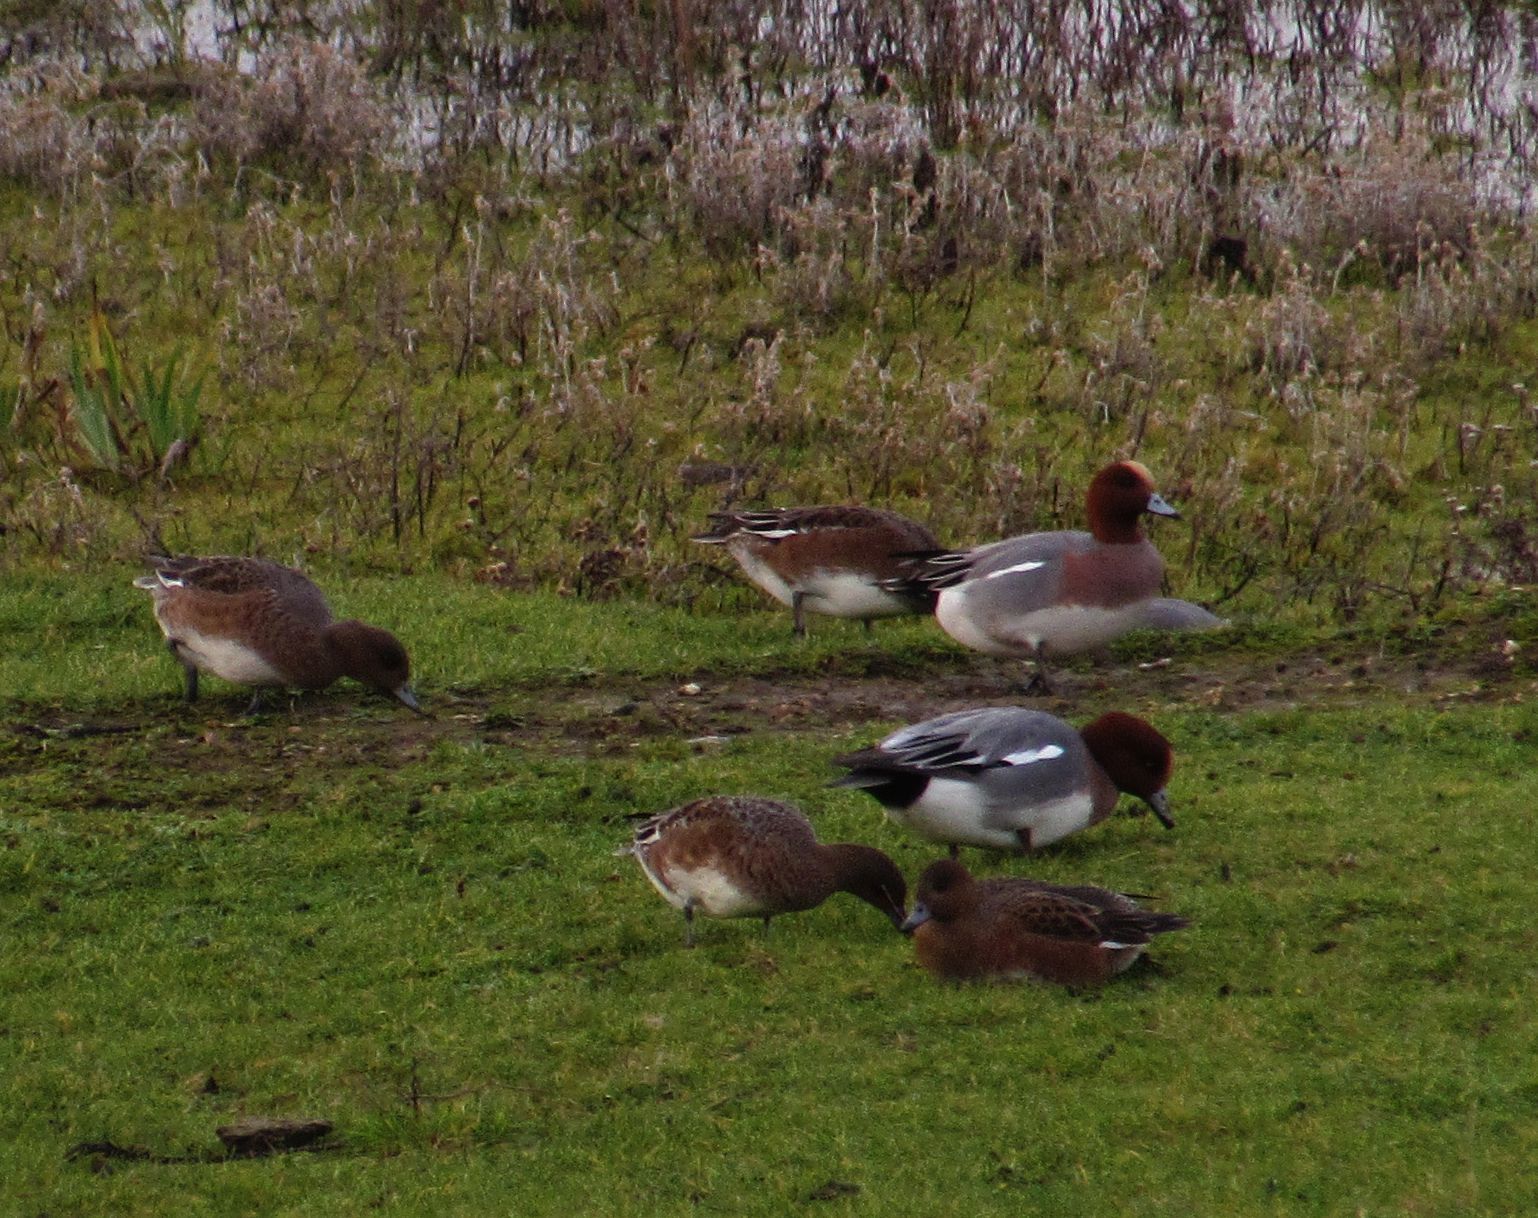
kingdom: Animalia
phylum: Chordata
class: Aves
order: Anseriformes
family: Anatidae
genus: Mareca
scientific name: Mareca penelope
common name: Eurasian wigeon
